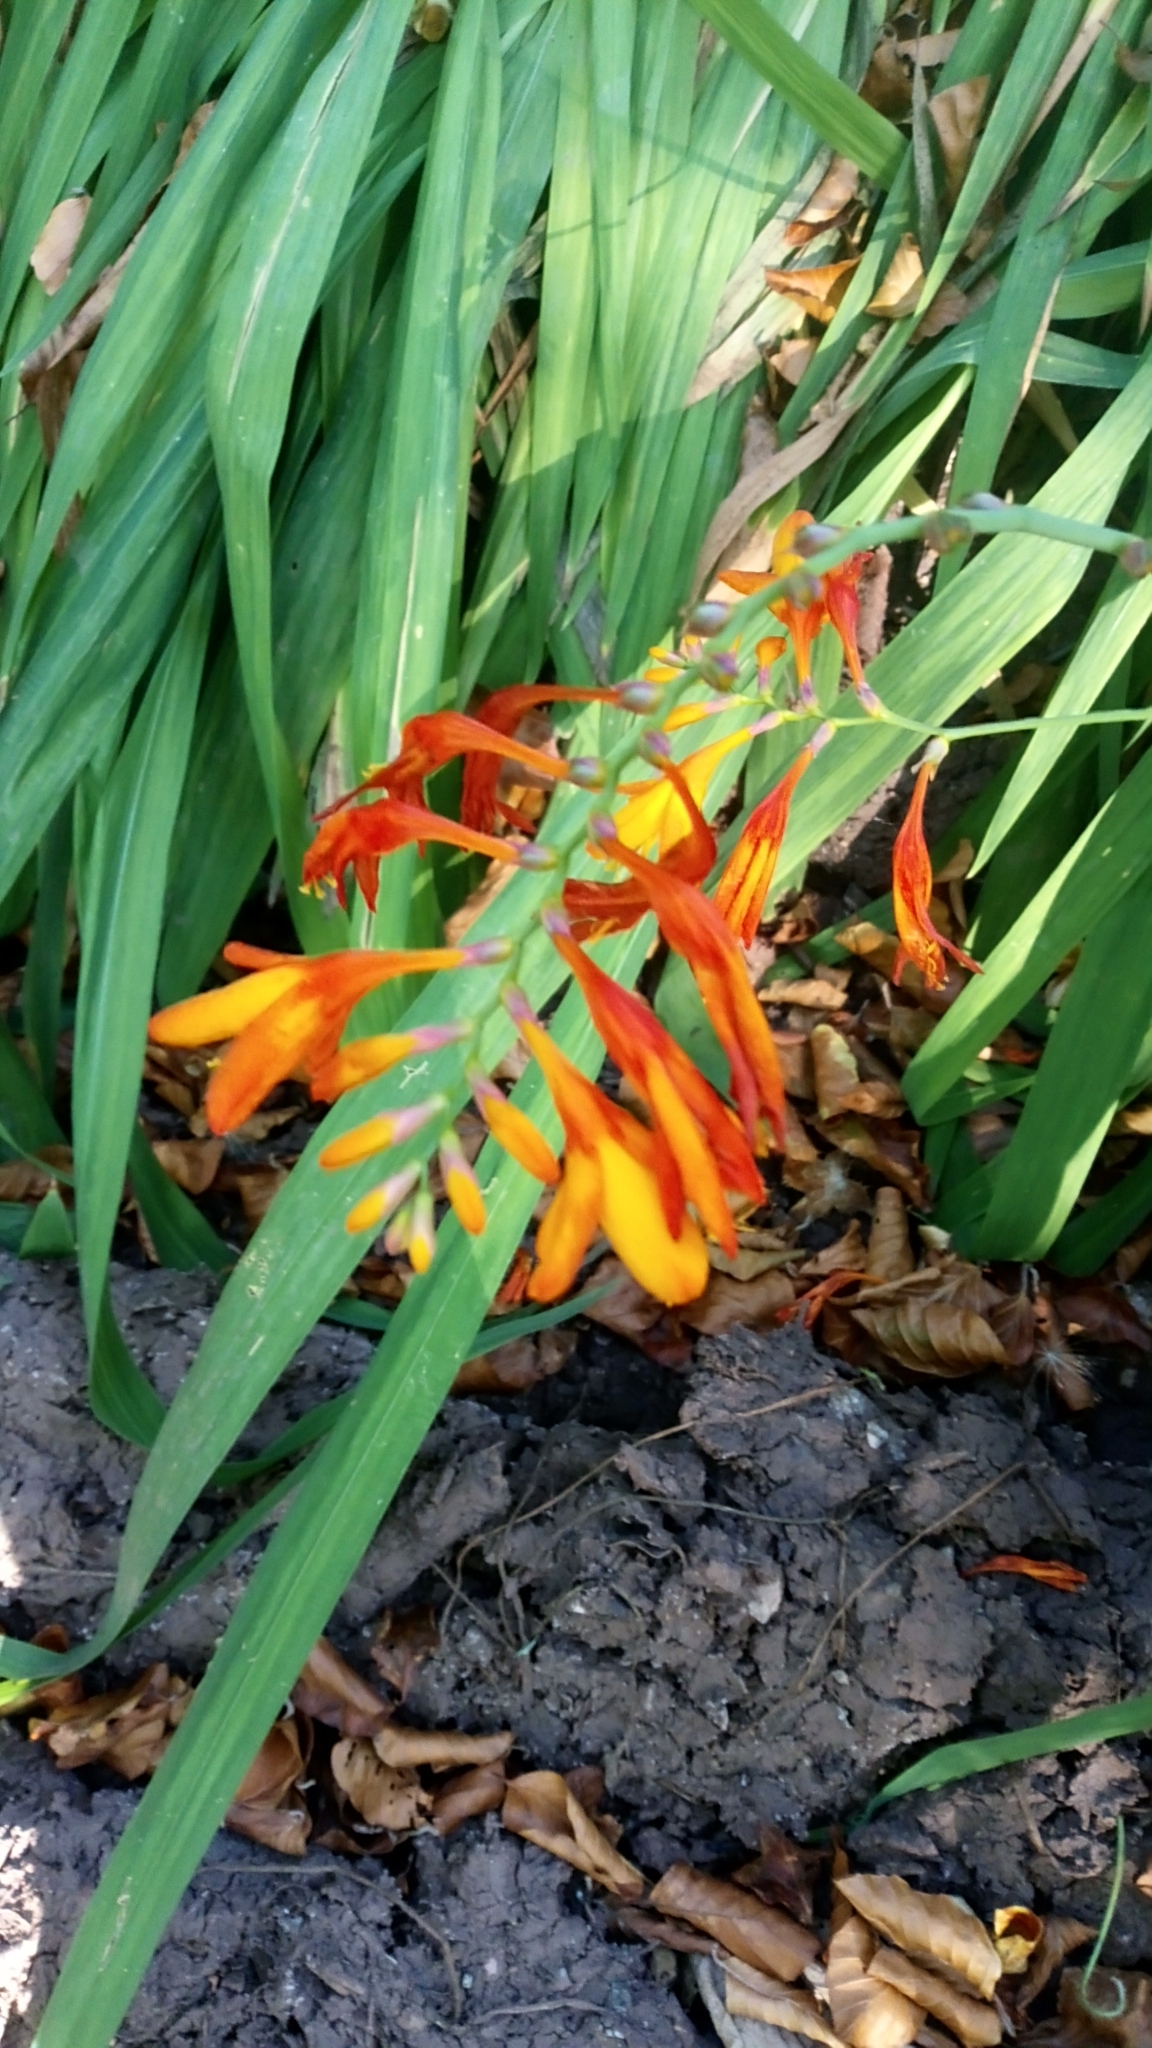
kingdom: Plantae
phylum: Tracheophyta
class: Liliopsida
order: Asparagales
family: Iridaceae
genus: Crocosmia
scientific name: Crocosmia crocosmiiflora
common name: Montbretia
